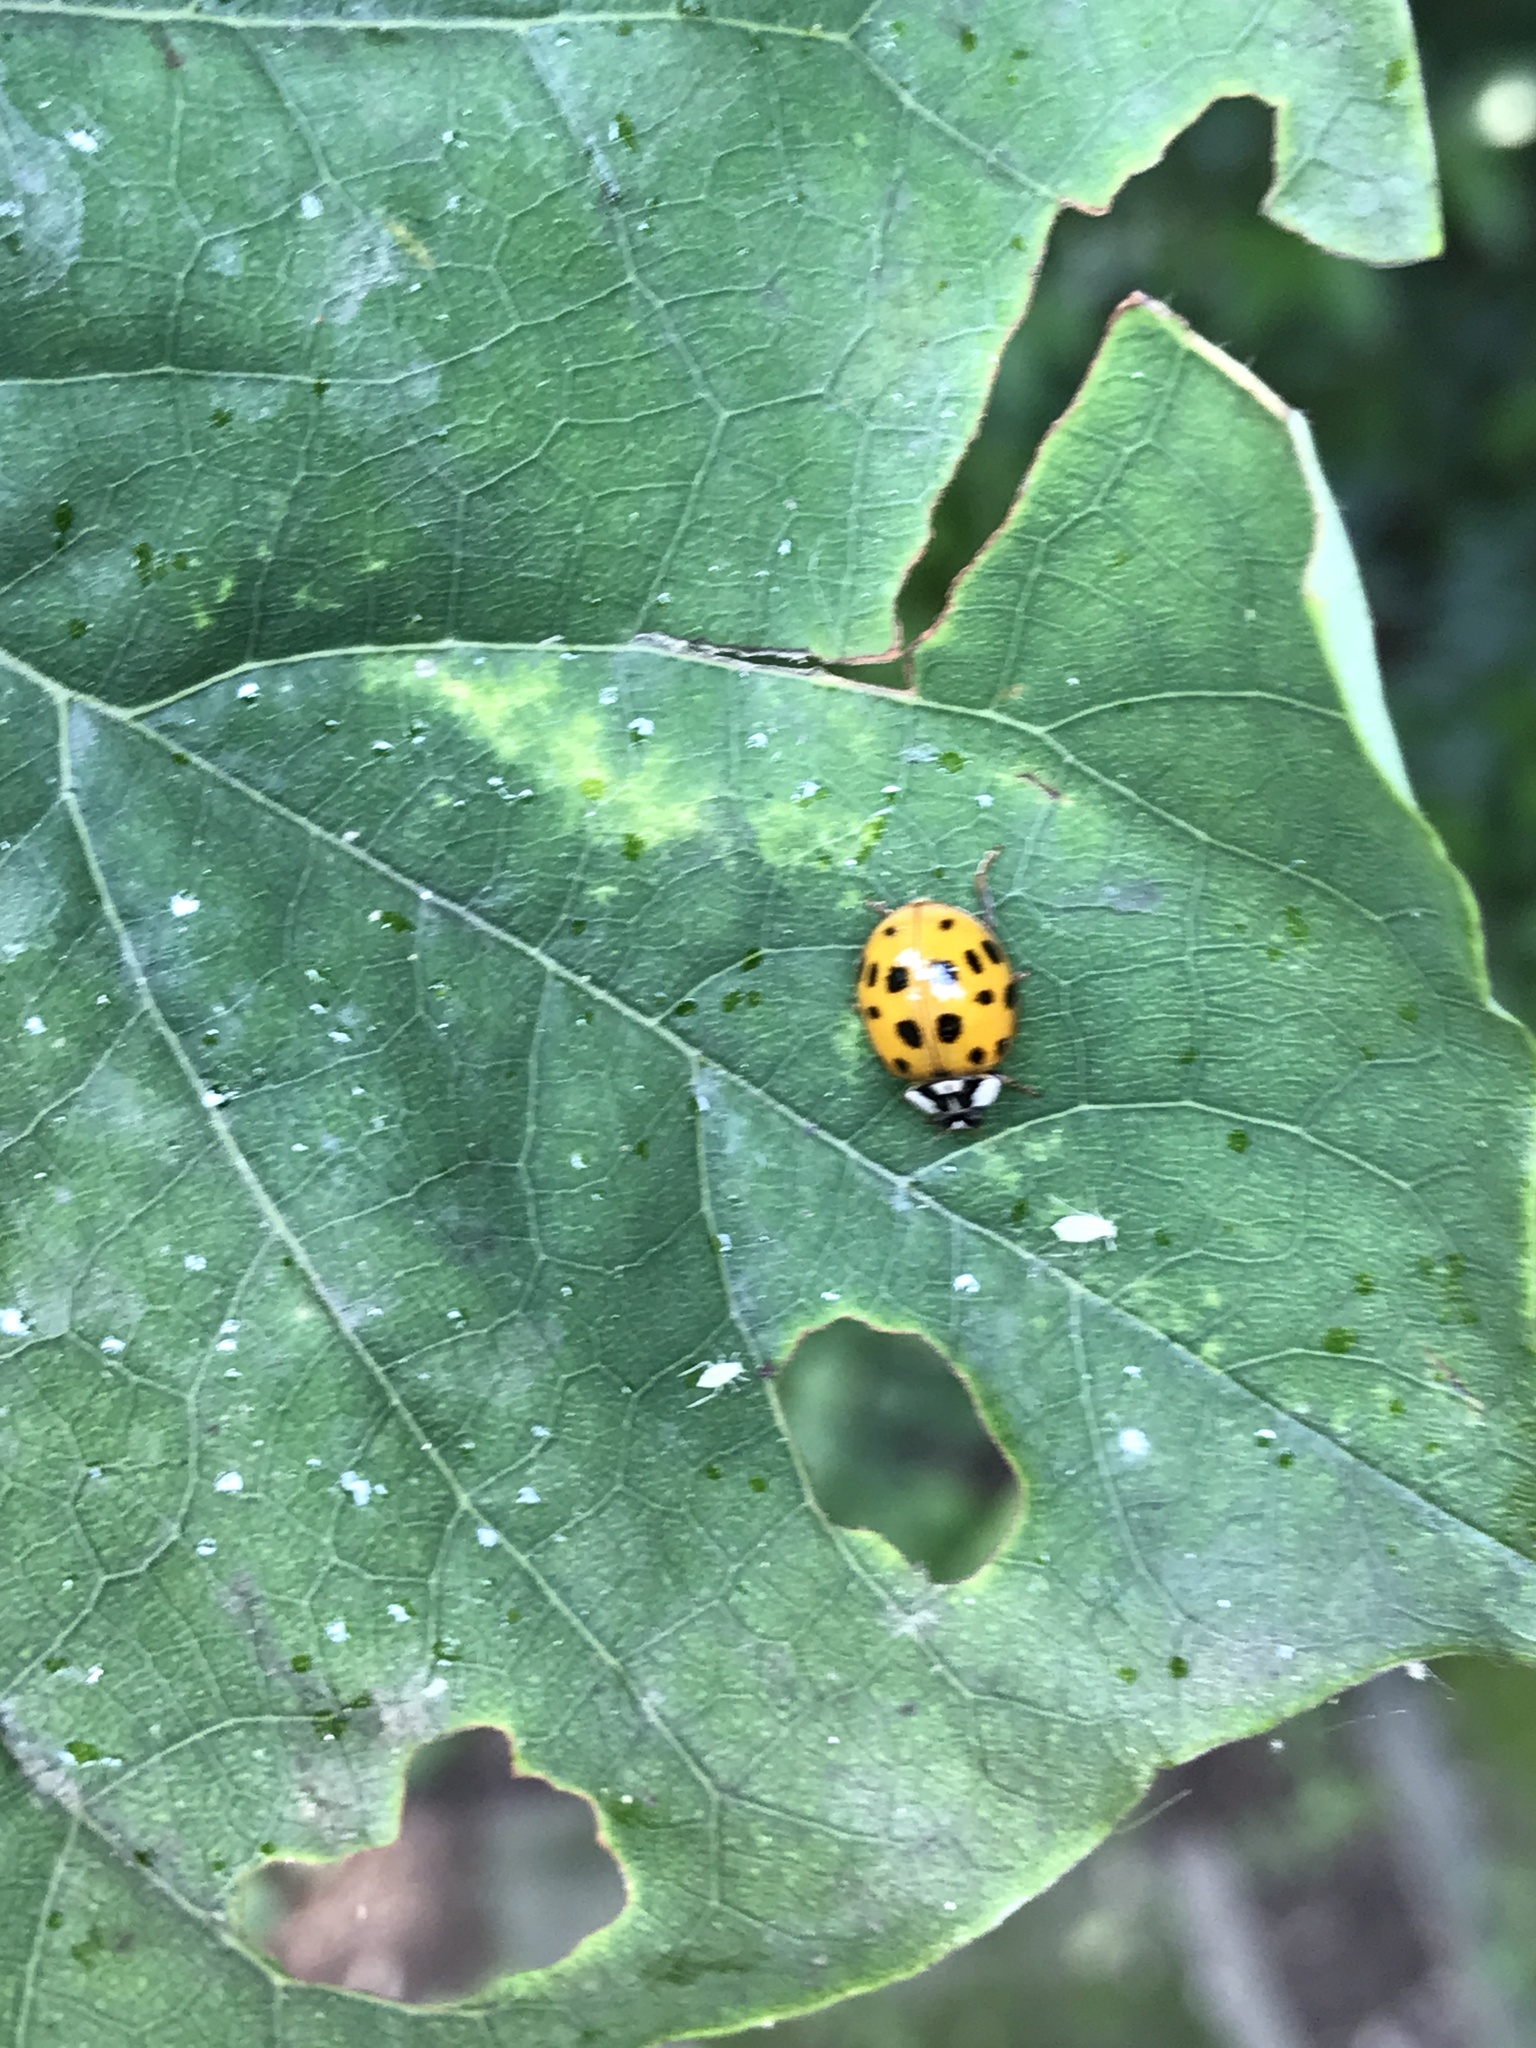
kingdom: Animalia
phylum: Arthropoda
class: Insecta
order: Coleoptera
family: Coccinellidae
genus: Harmonia
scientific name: Harmonia axyridis
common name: Harlequin ladybird
